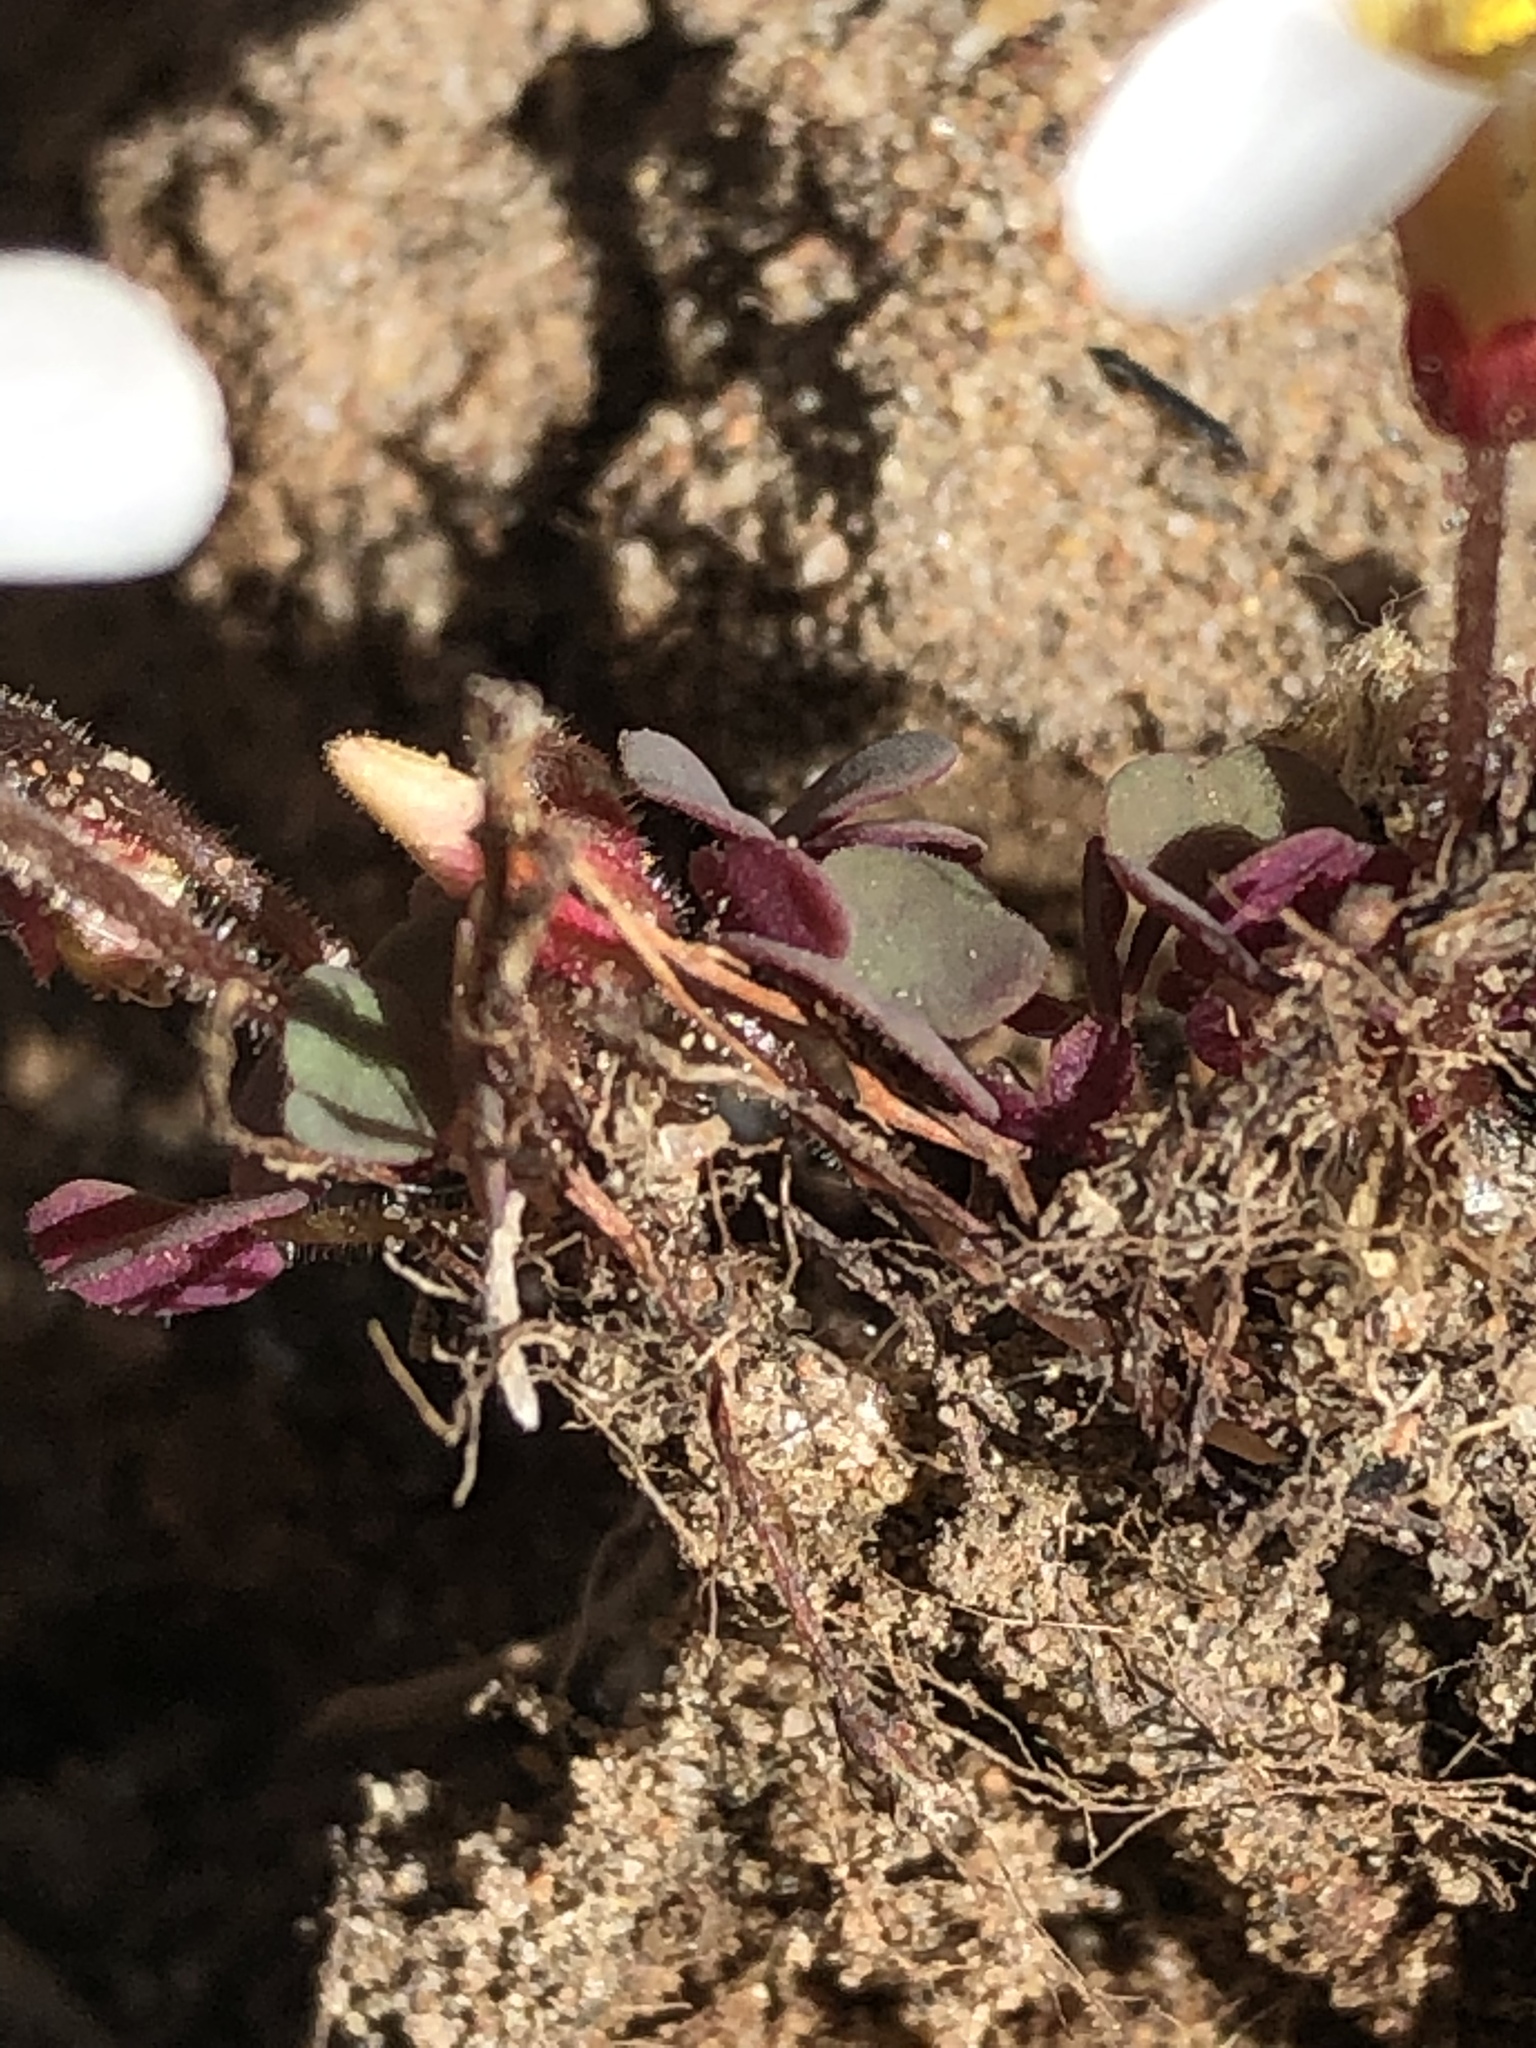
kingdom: Plantae
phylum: Tracheophyta
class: Magnoliopsida
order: Oxalidales
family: Oxalidaceae
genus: Oxalis
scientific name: Oxalis attaquana
